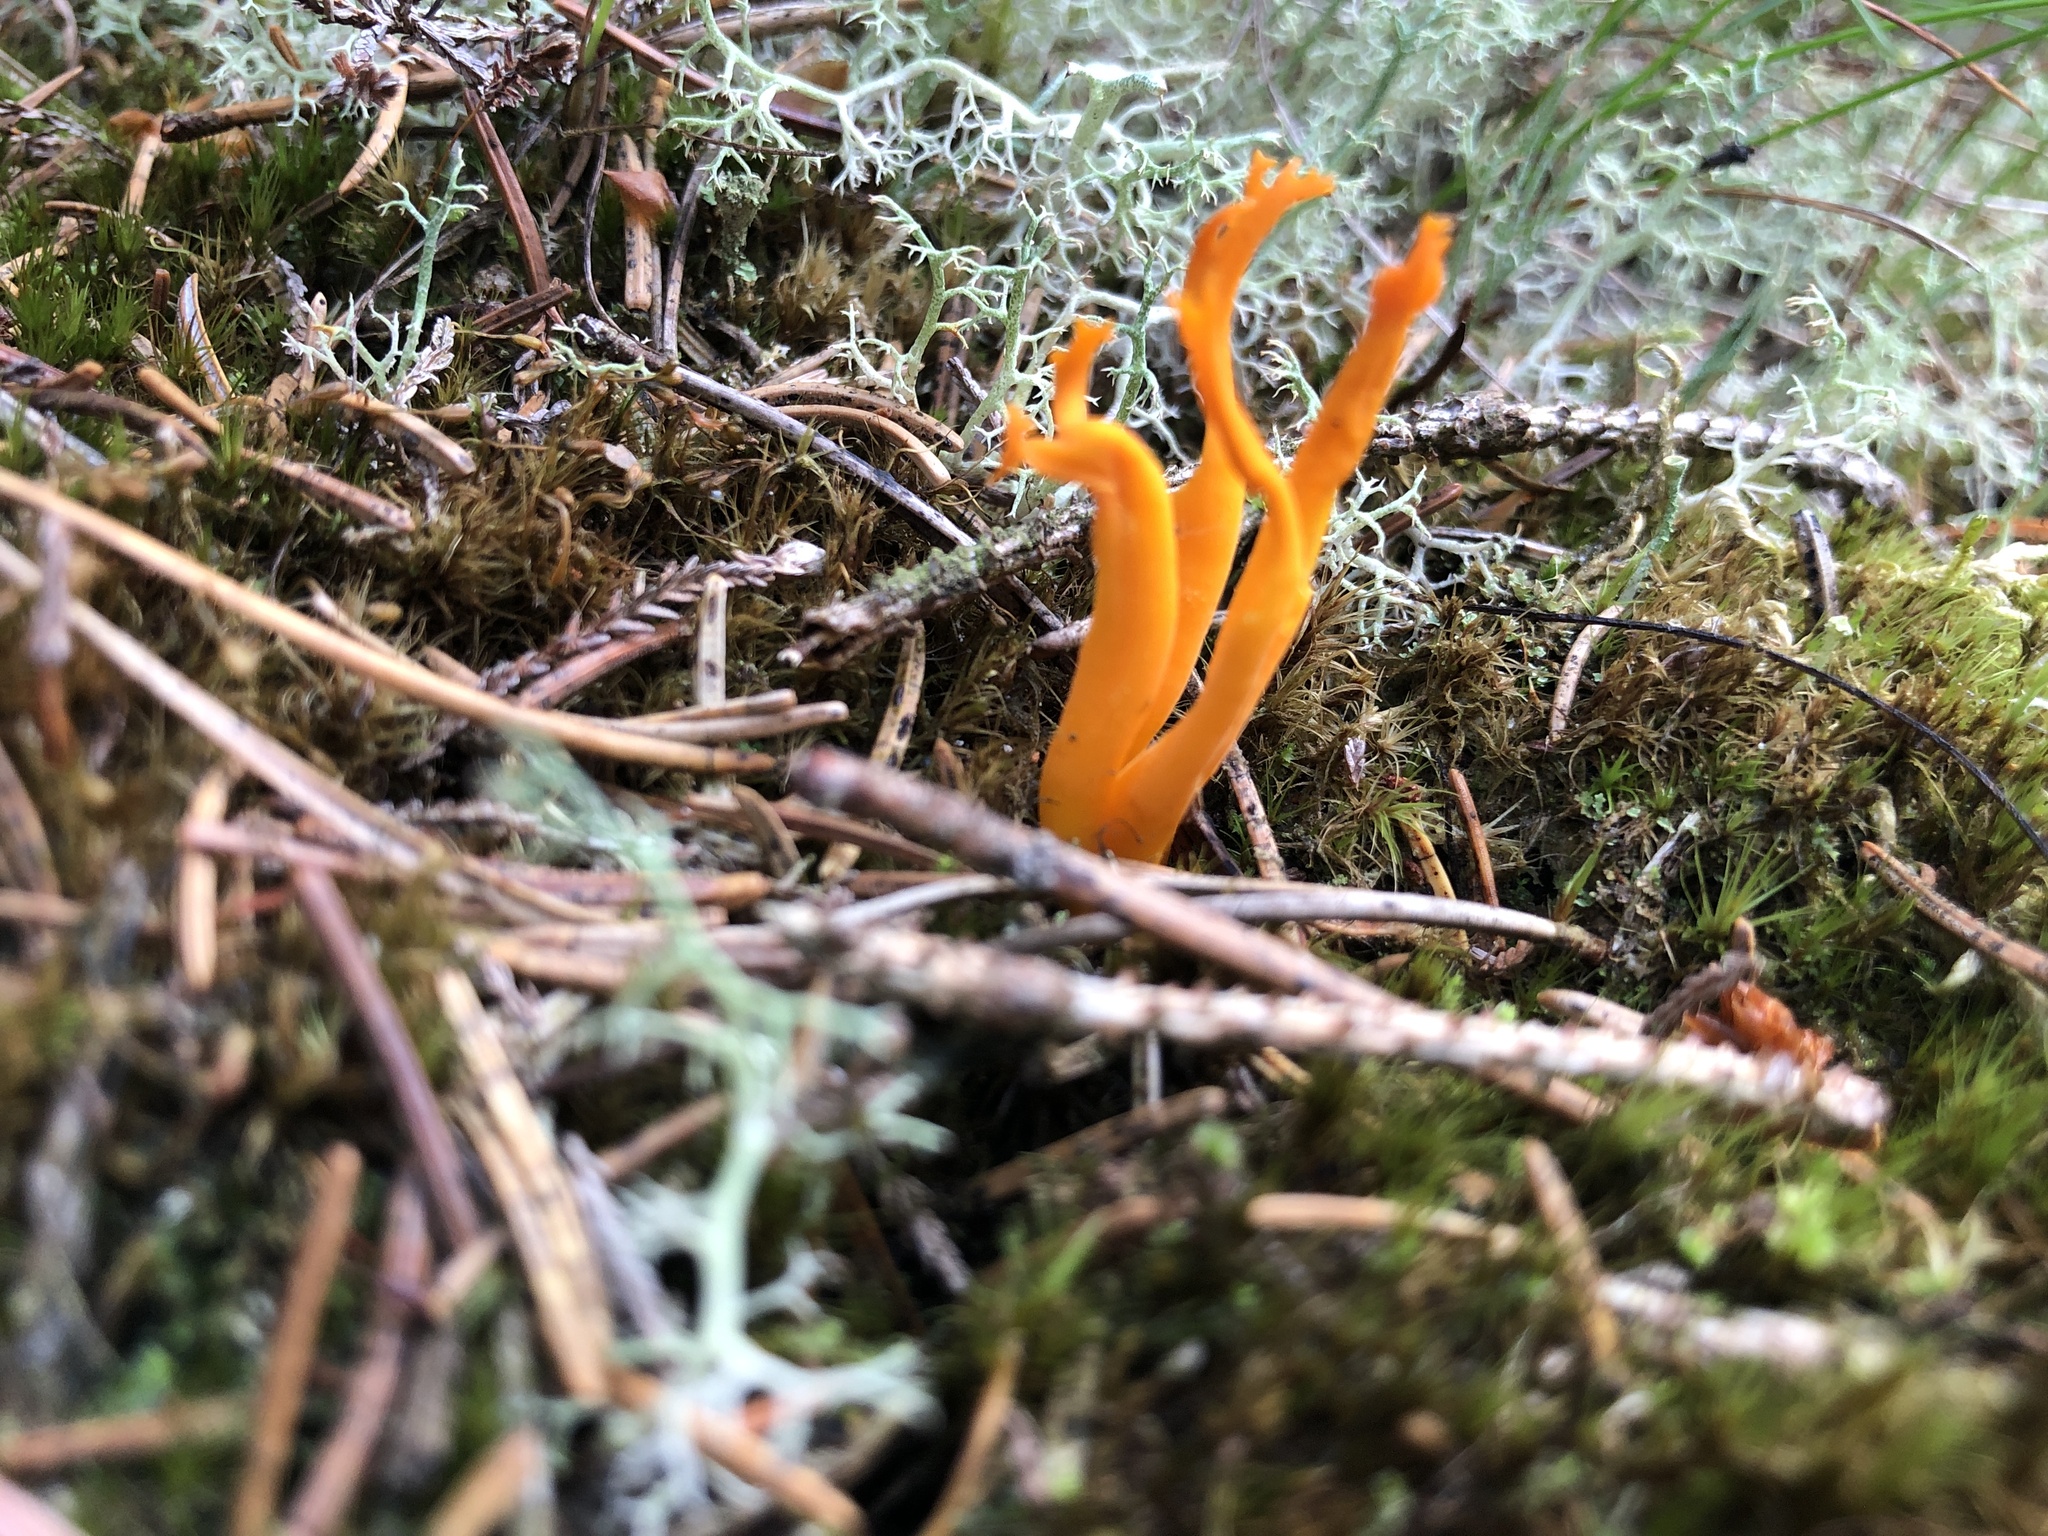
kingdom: Fungi
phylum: Basidiomycota
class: Dacrymycetes
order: Dacrymycetales
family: Dacrymycetaceae
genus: Calocera
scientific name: Calocera viscosa
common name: Yellow stagshorn
